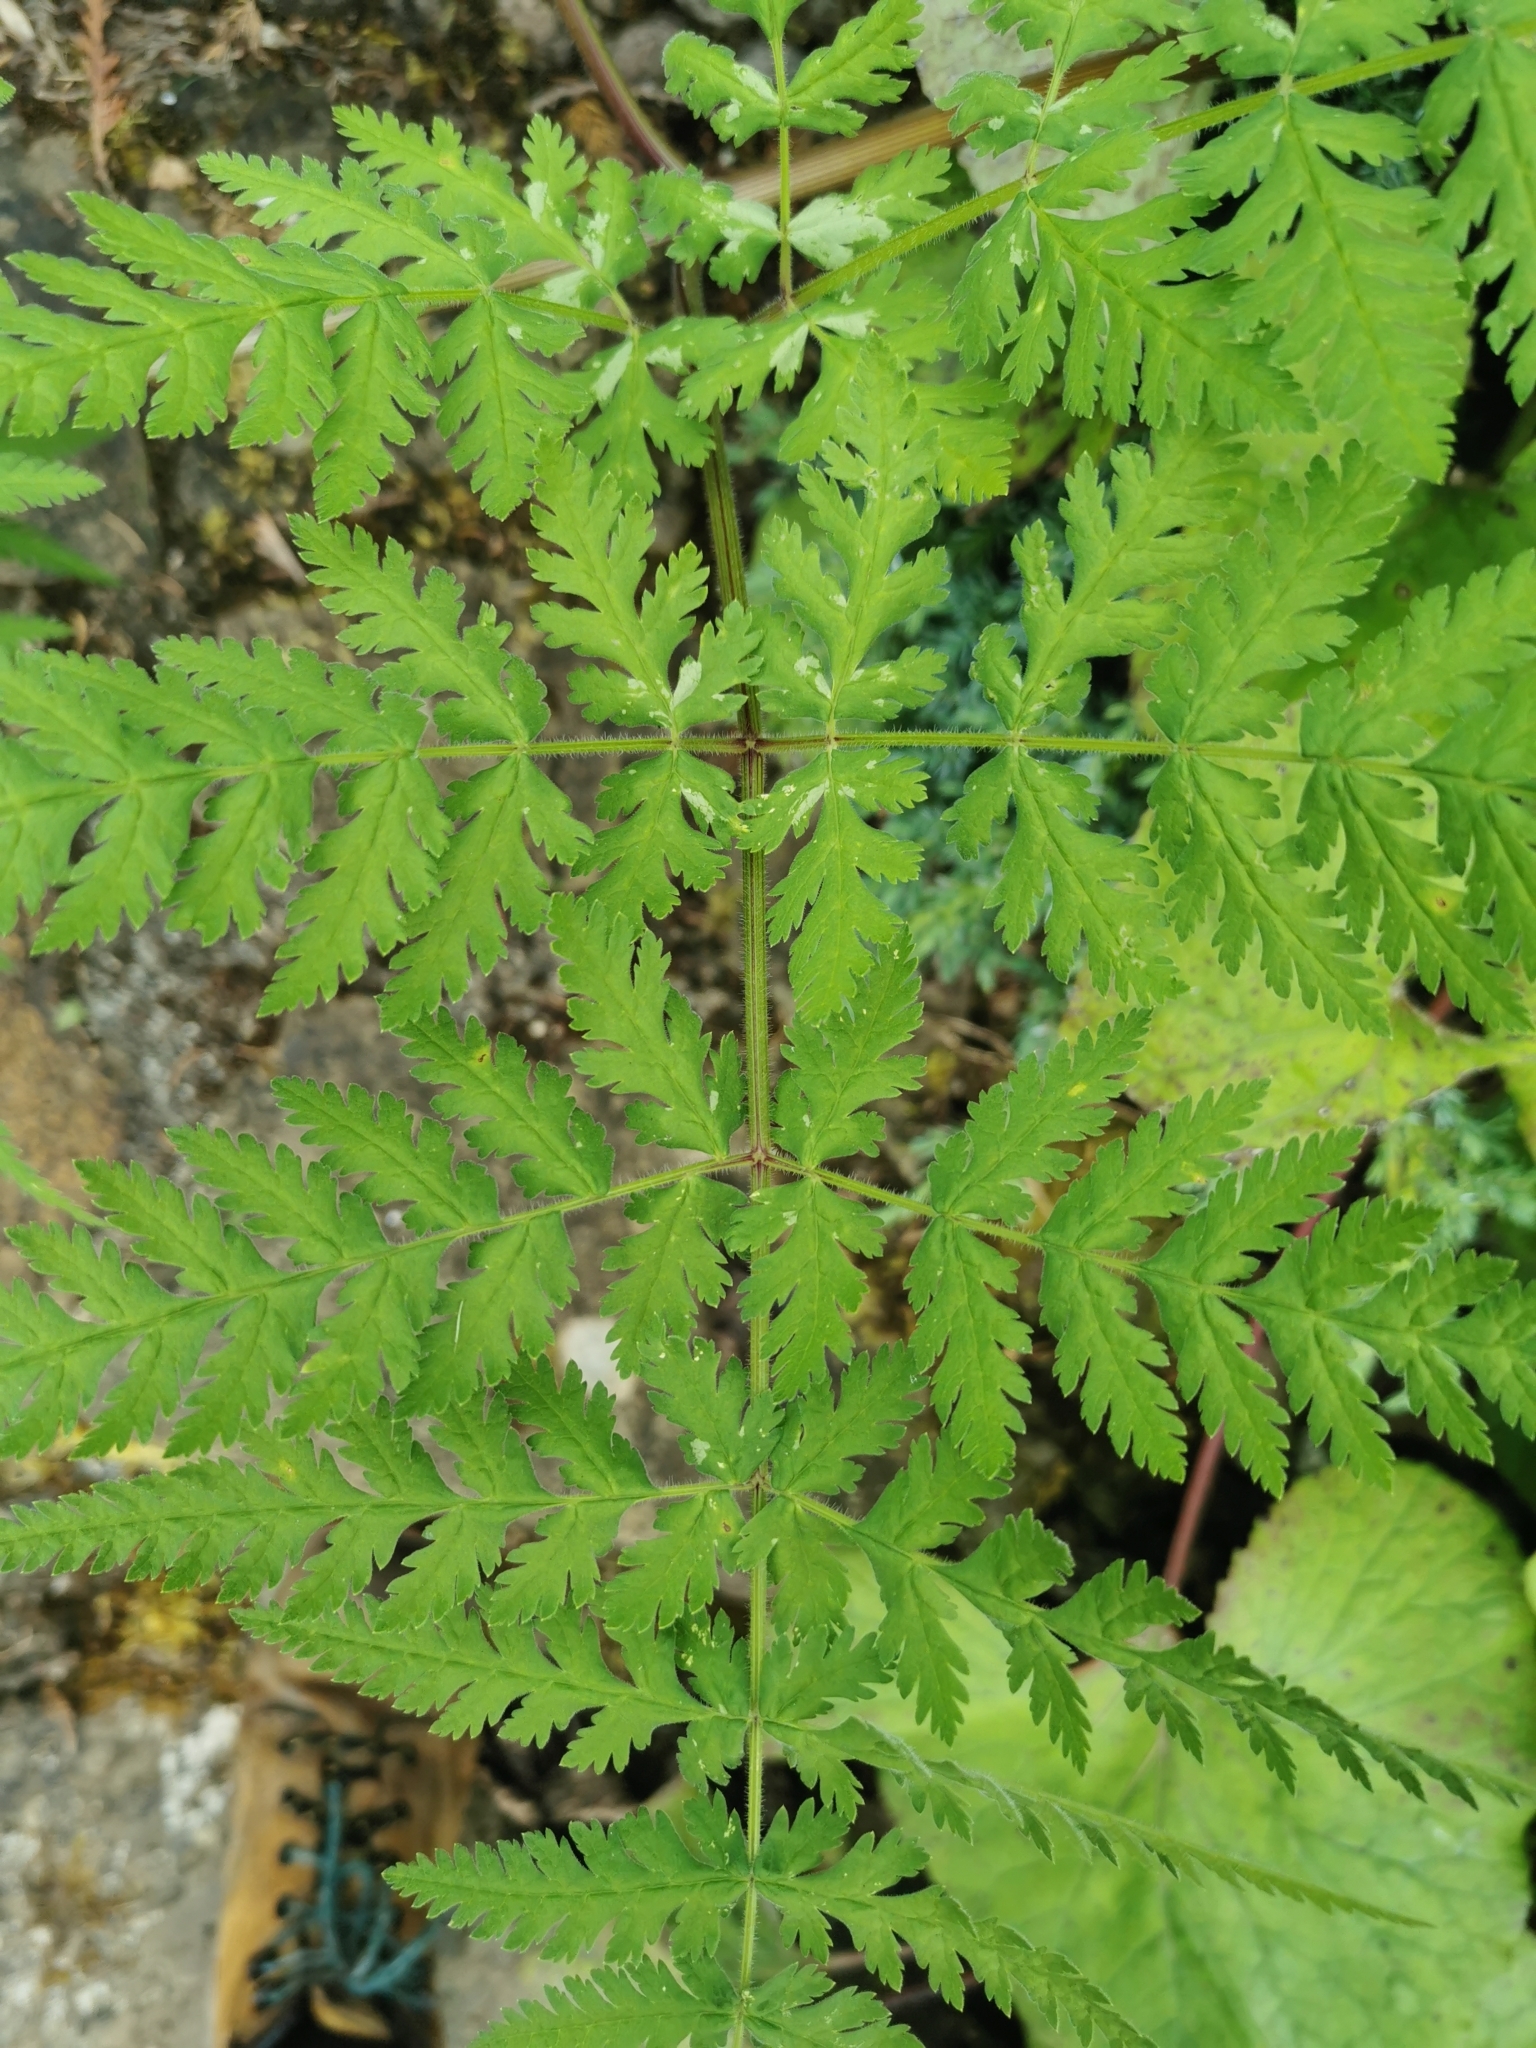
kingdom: Plantae
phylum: Tracheophyta
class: Magnoliopsida
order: Apiales
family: Apiaceae
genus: Myrrhis
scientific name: Myrrhis odorata
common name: Sweet cicely
